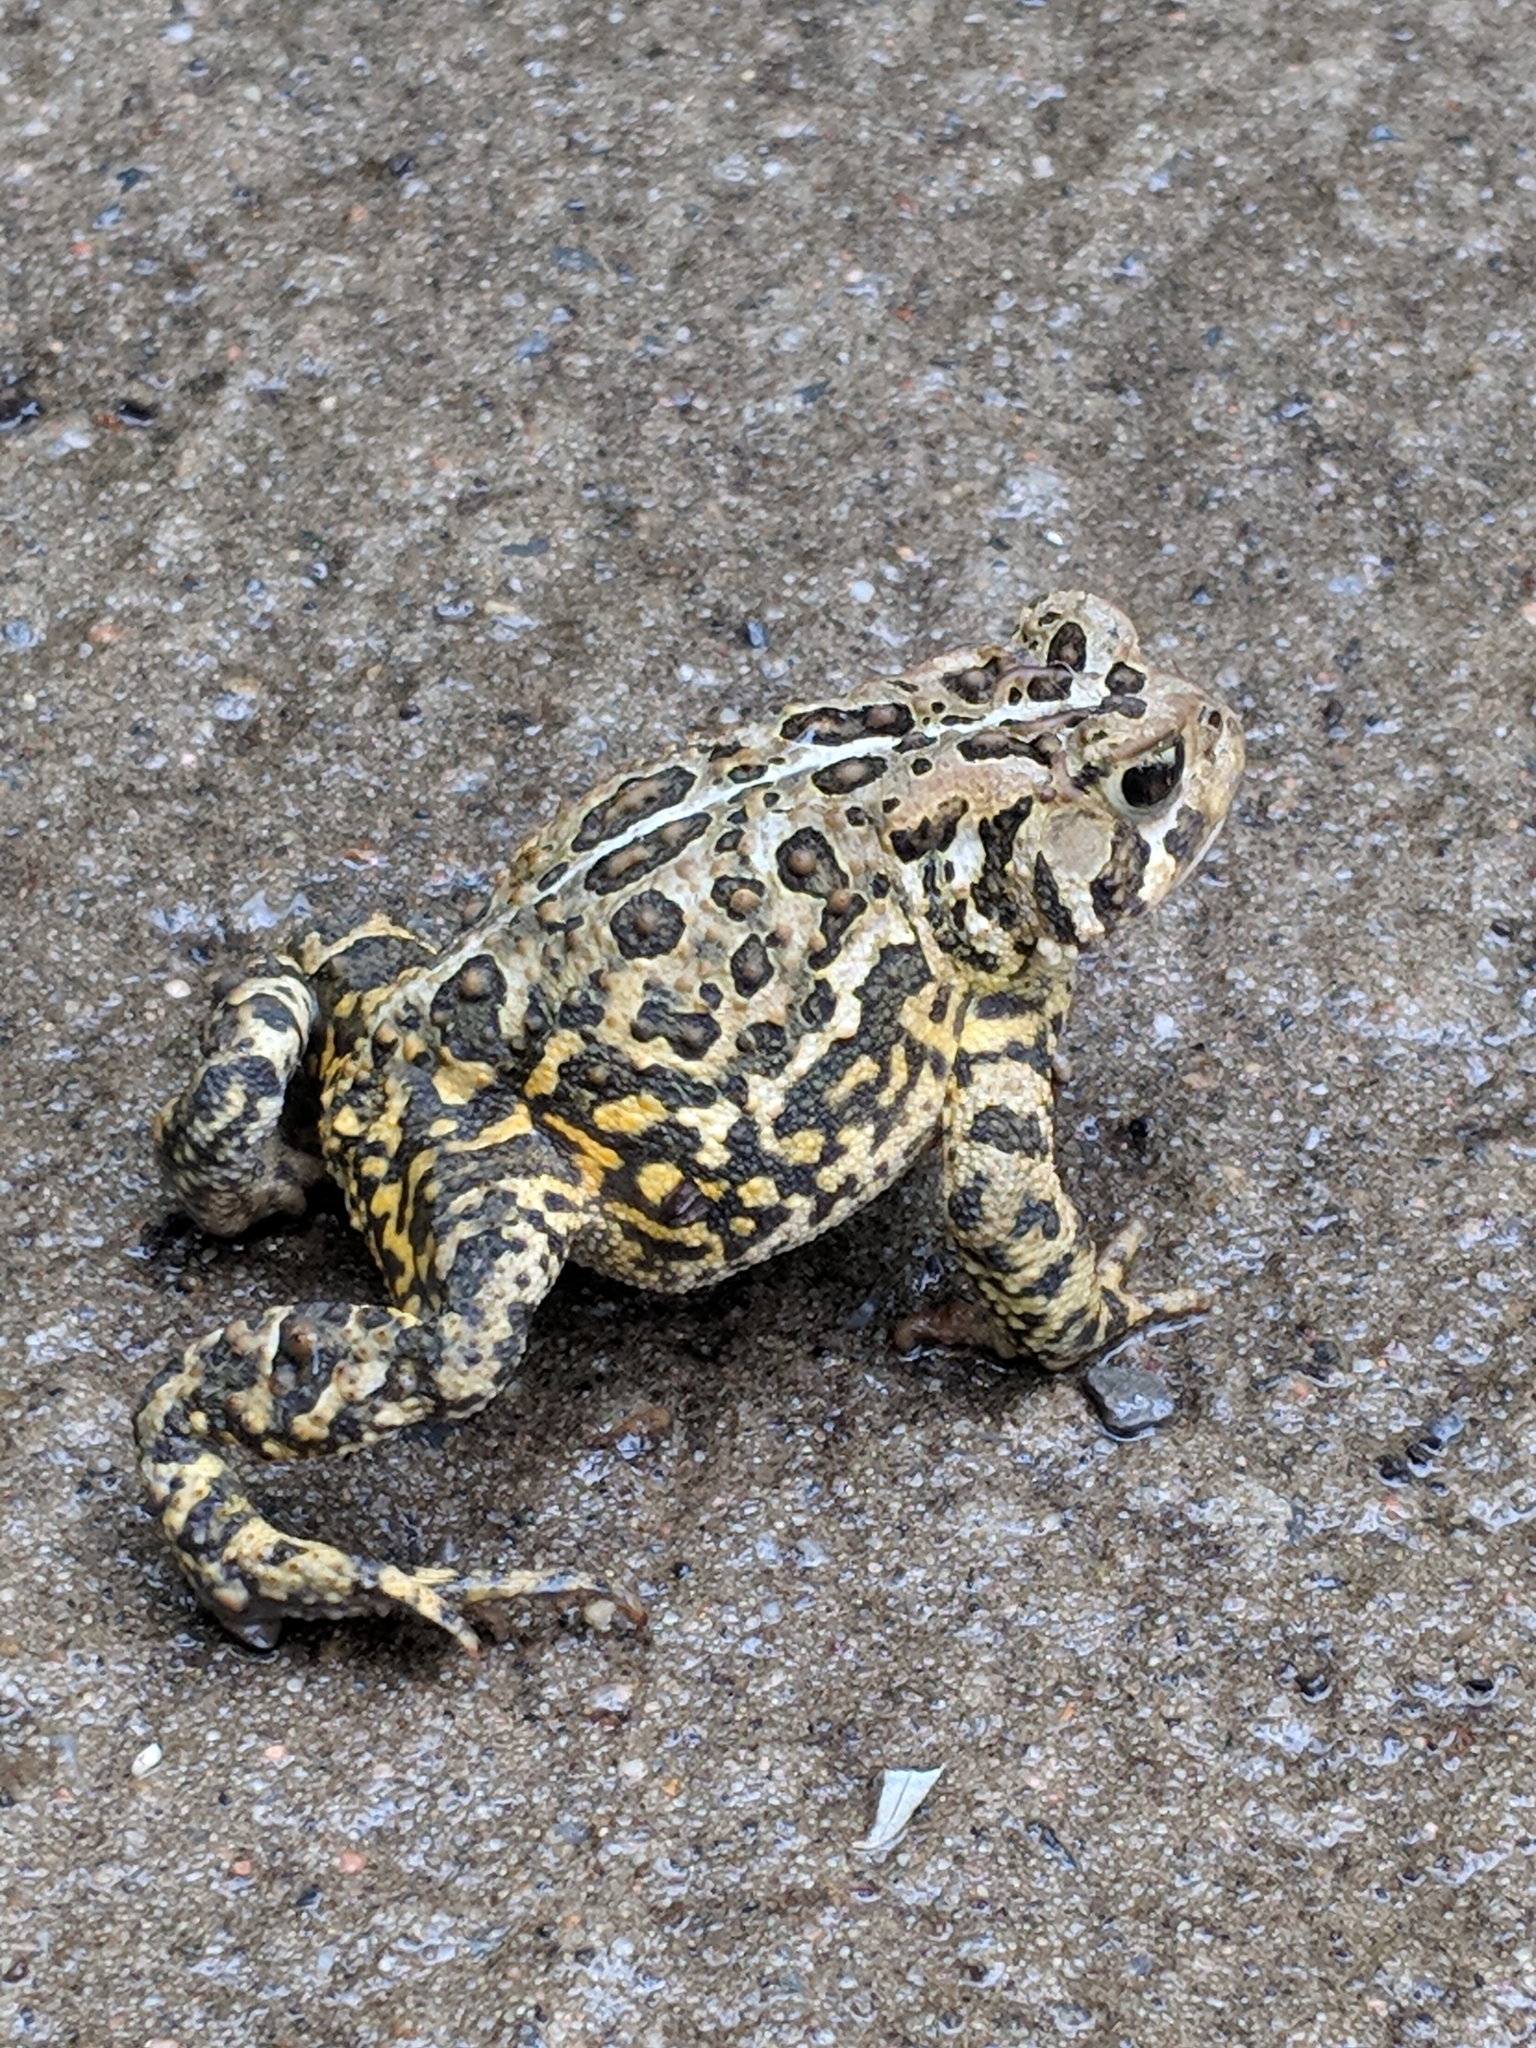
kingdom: Animalia
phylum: Chordata
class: Amphibia
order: Anura
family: Bufonidae
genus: Anaxyrus
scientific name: Anaxyrus americanus
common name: American toad
